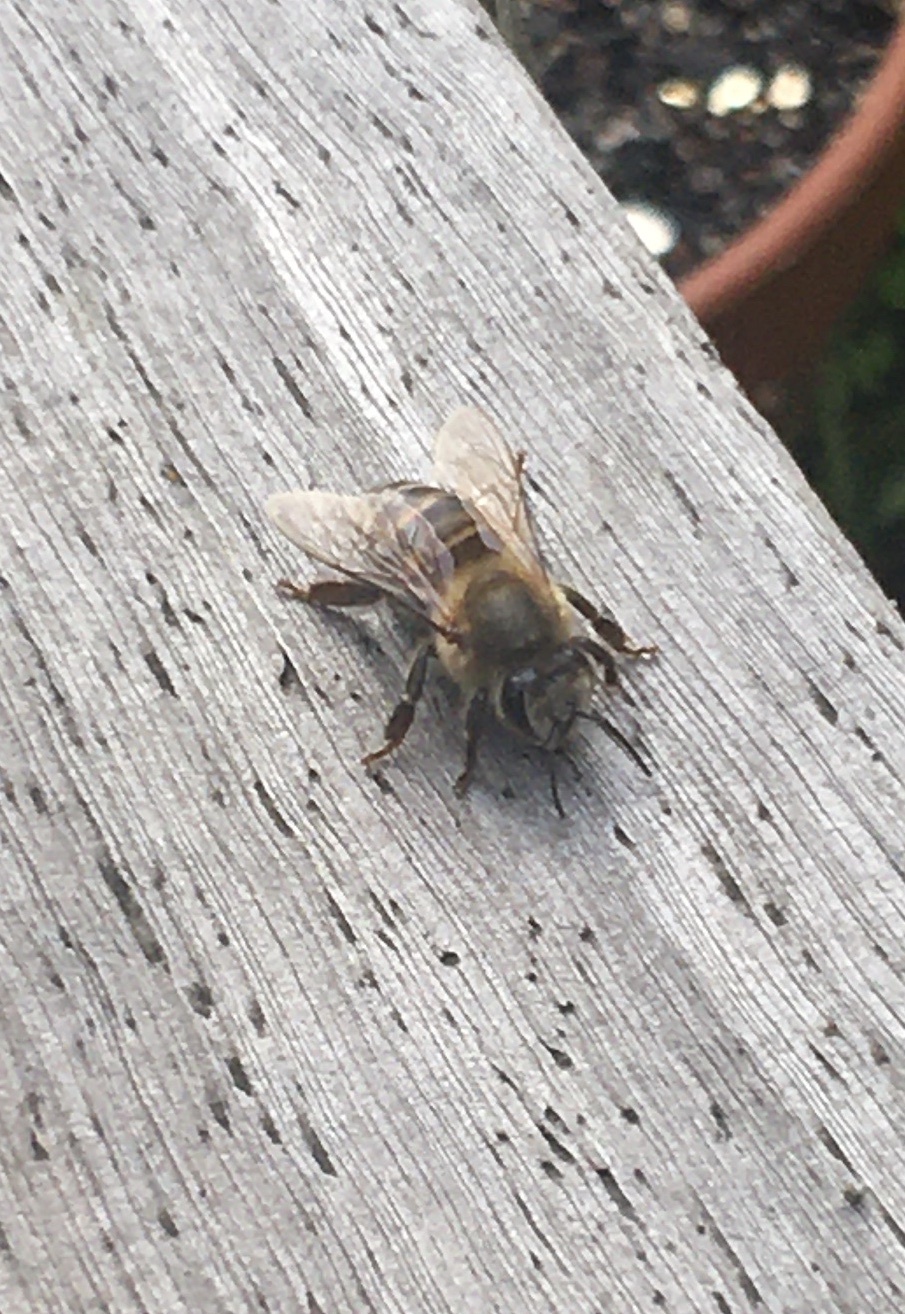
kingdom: Animalia
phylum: Arthropoda
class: Insecta
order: Hymenoptera
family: Apidae
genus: Apis
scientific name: Apis mellifera
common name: Honey bee
